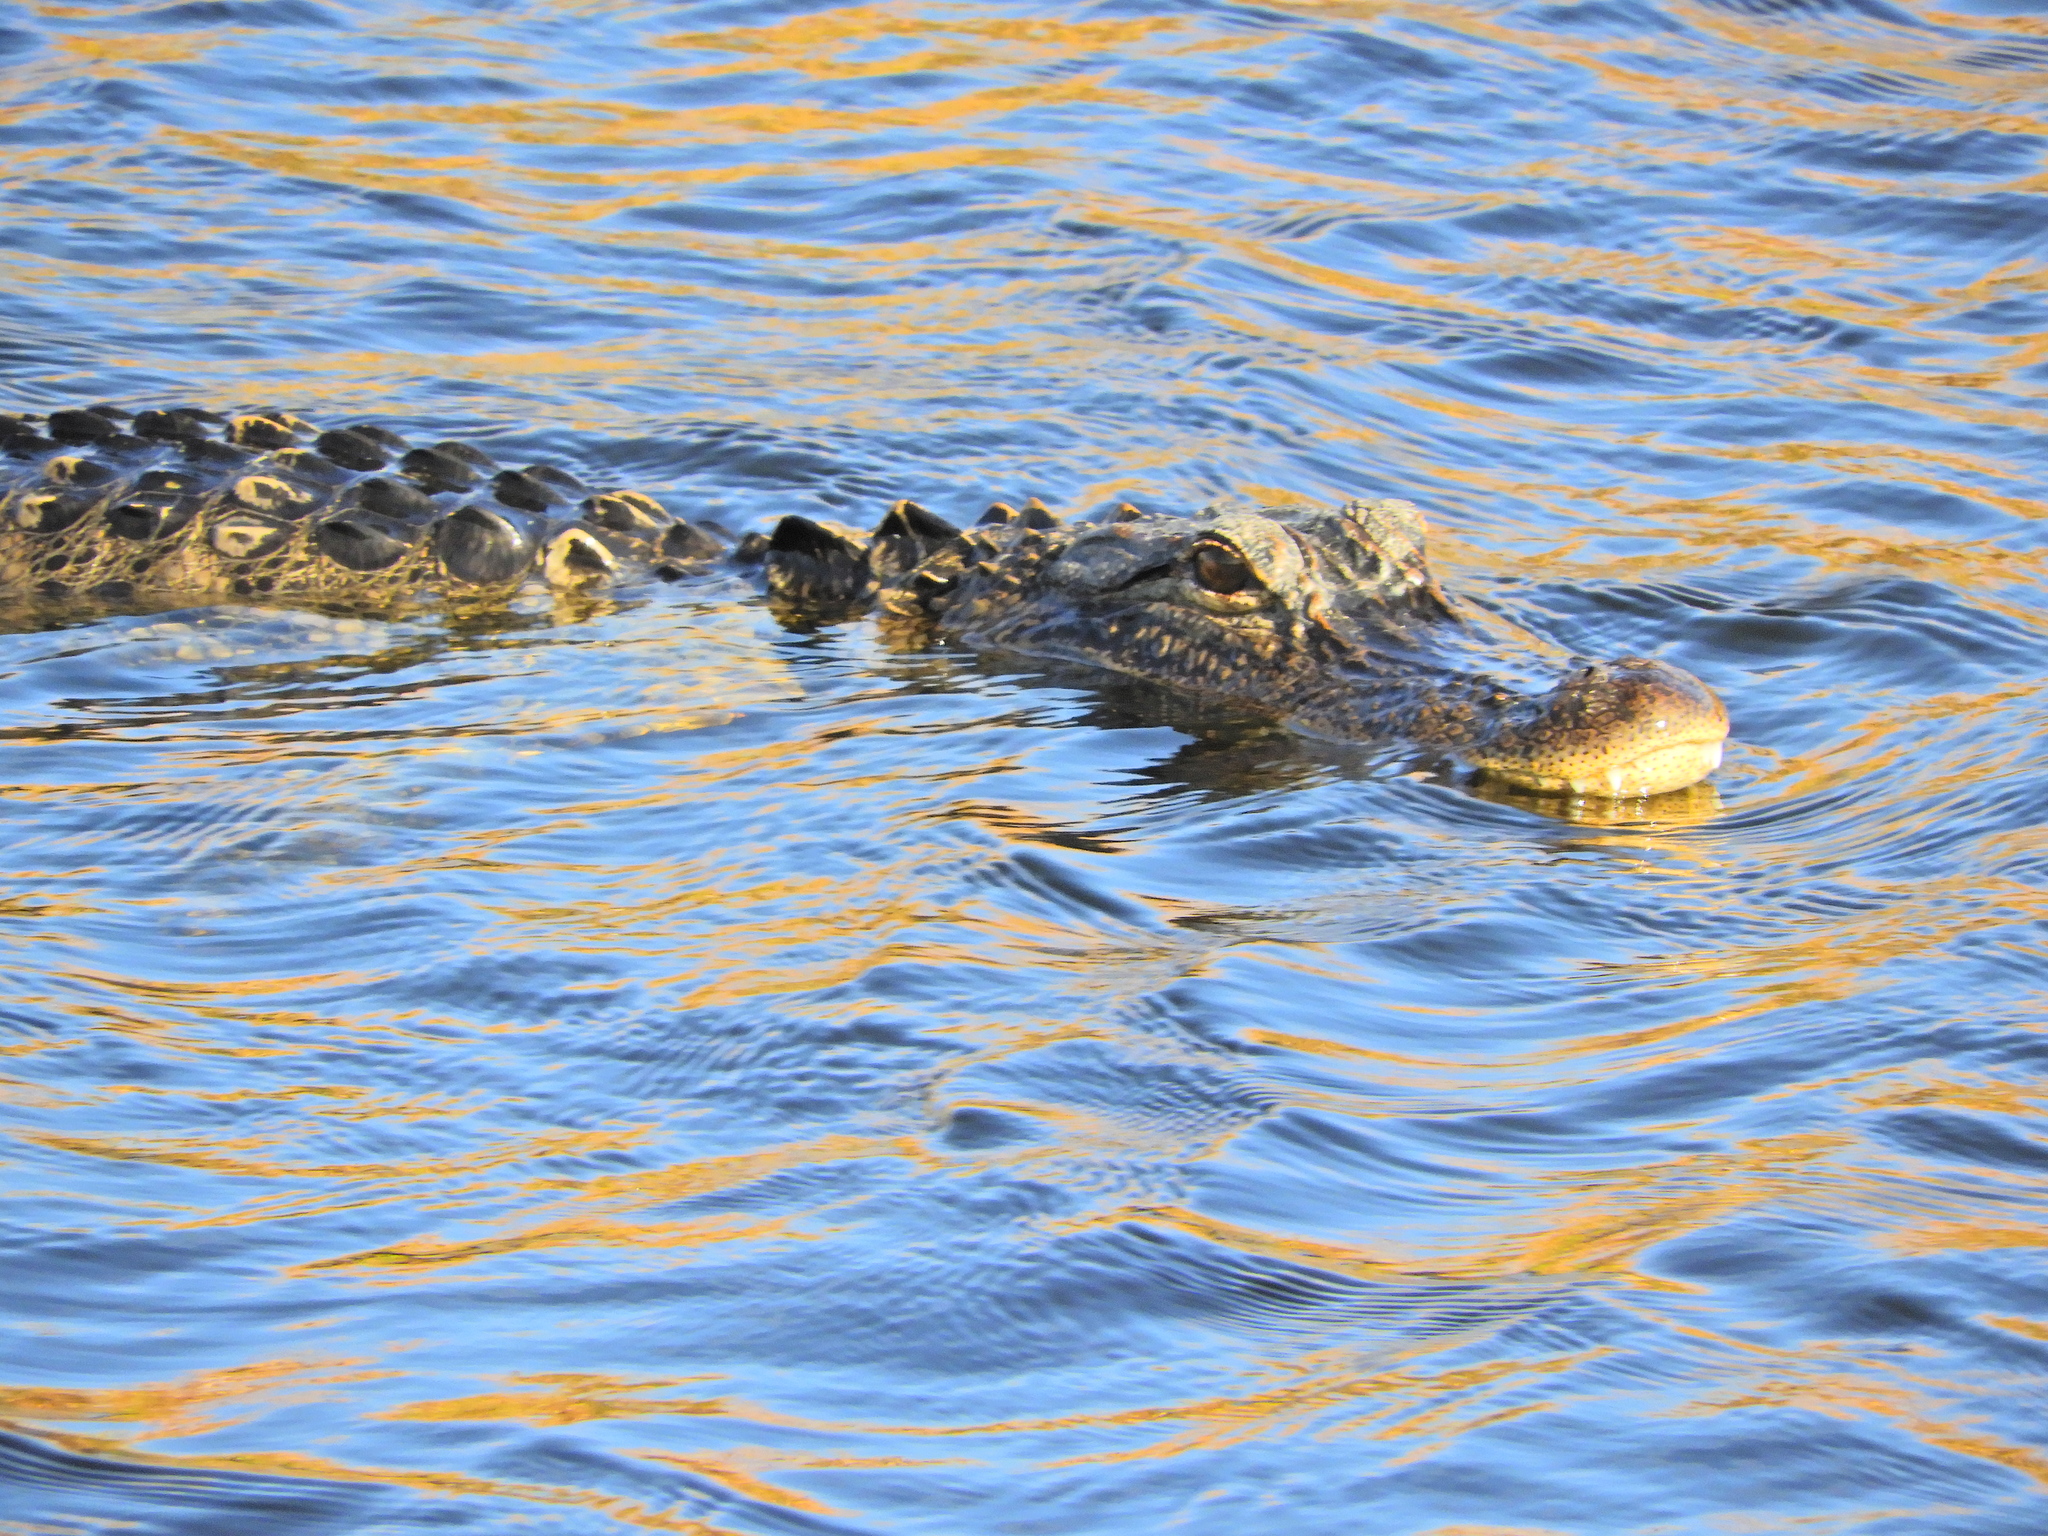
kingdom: Animalia
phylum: Chordata
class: Crocodylia
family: Alligatoridae
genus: Alligator
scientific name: Alligator mississippiensis
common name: American alligator
